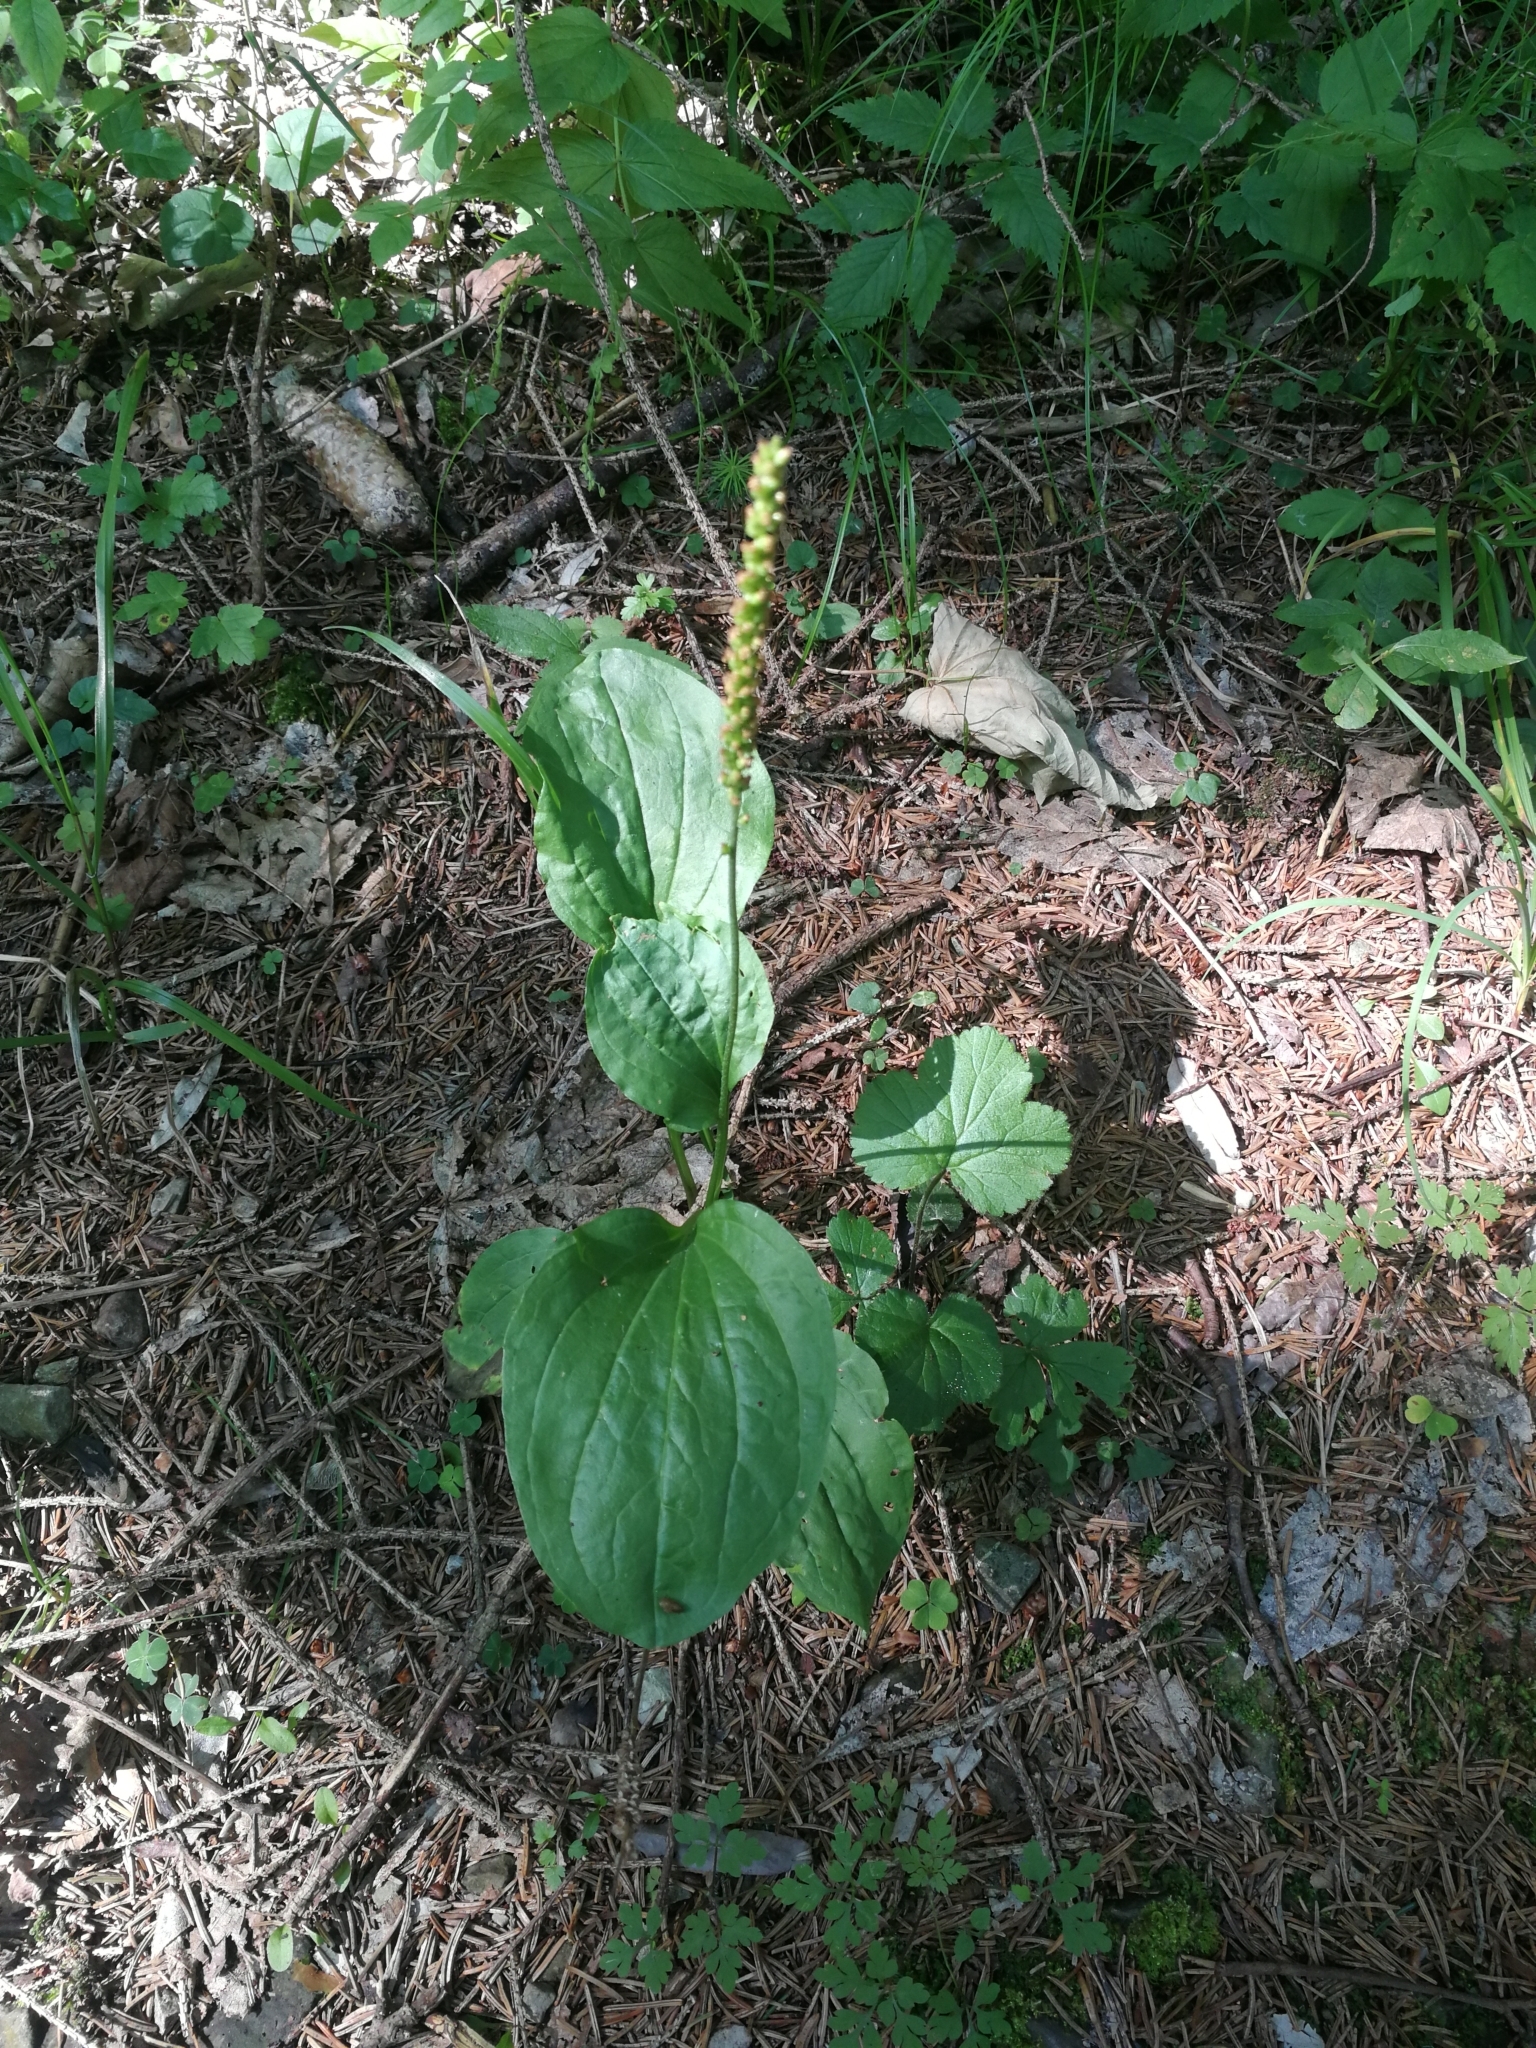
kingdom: Plantae
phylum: Tracheophyta
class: Magnoliopsida
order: Lamiales
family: Plantaginaceae
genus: Plantago
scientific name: Plantago major
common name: Common plantain
